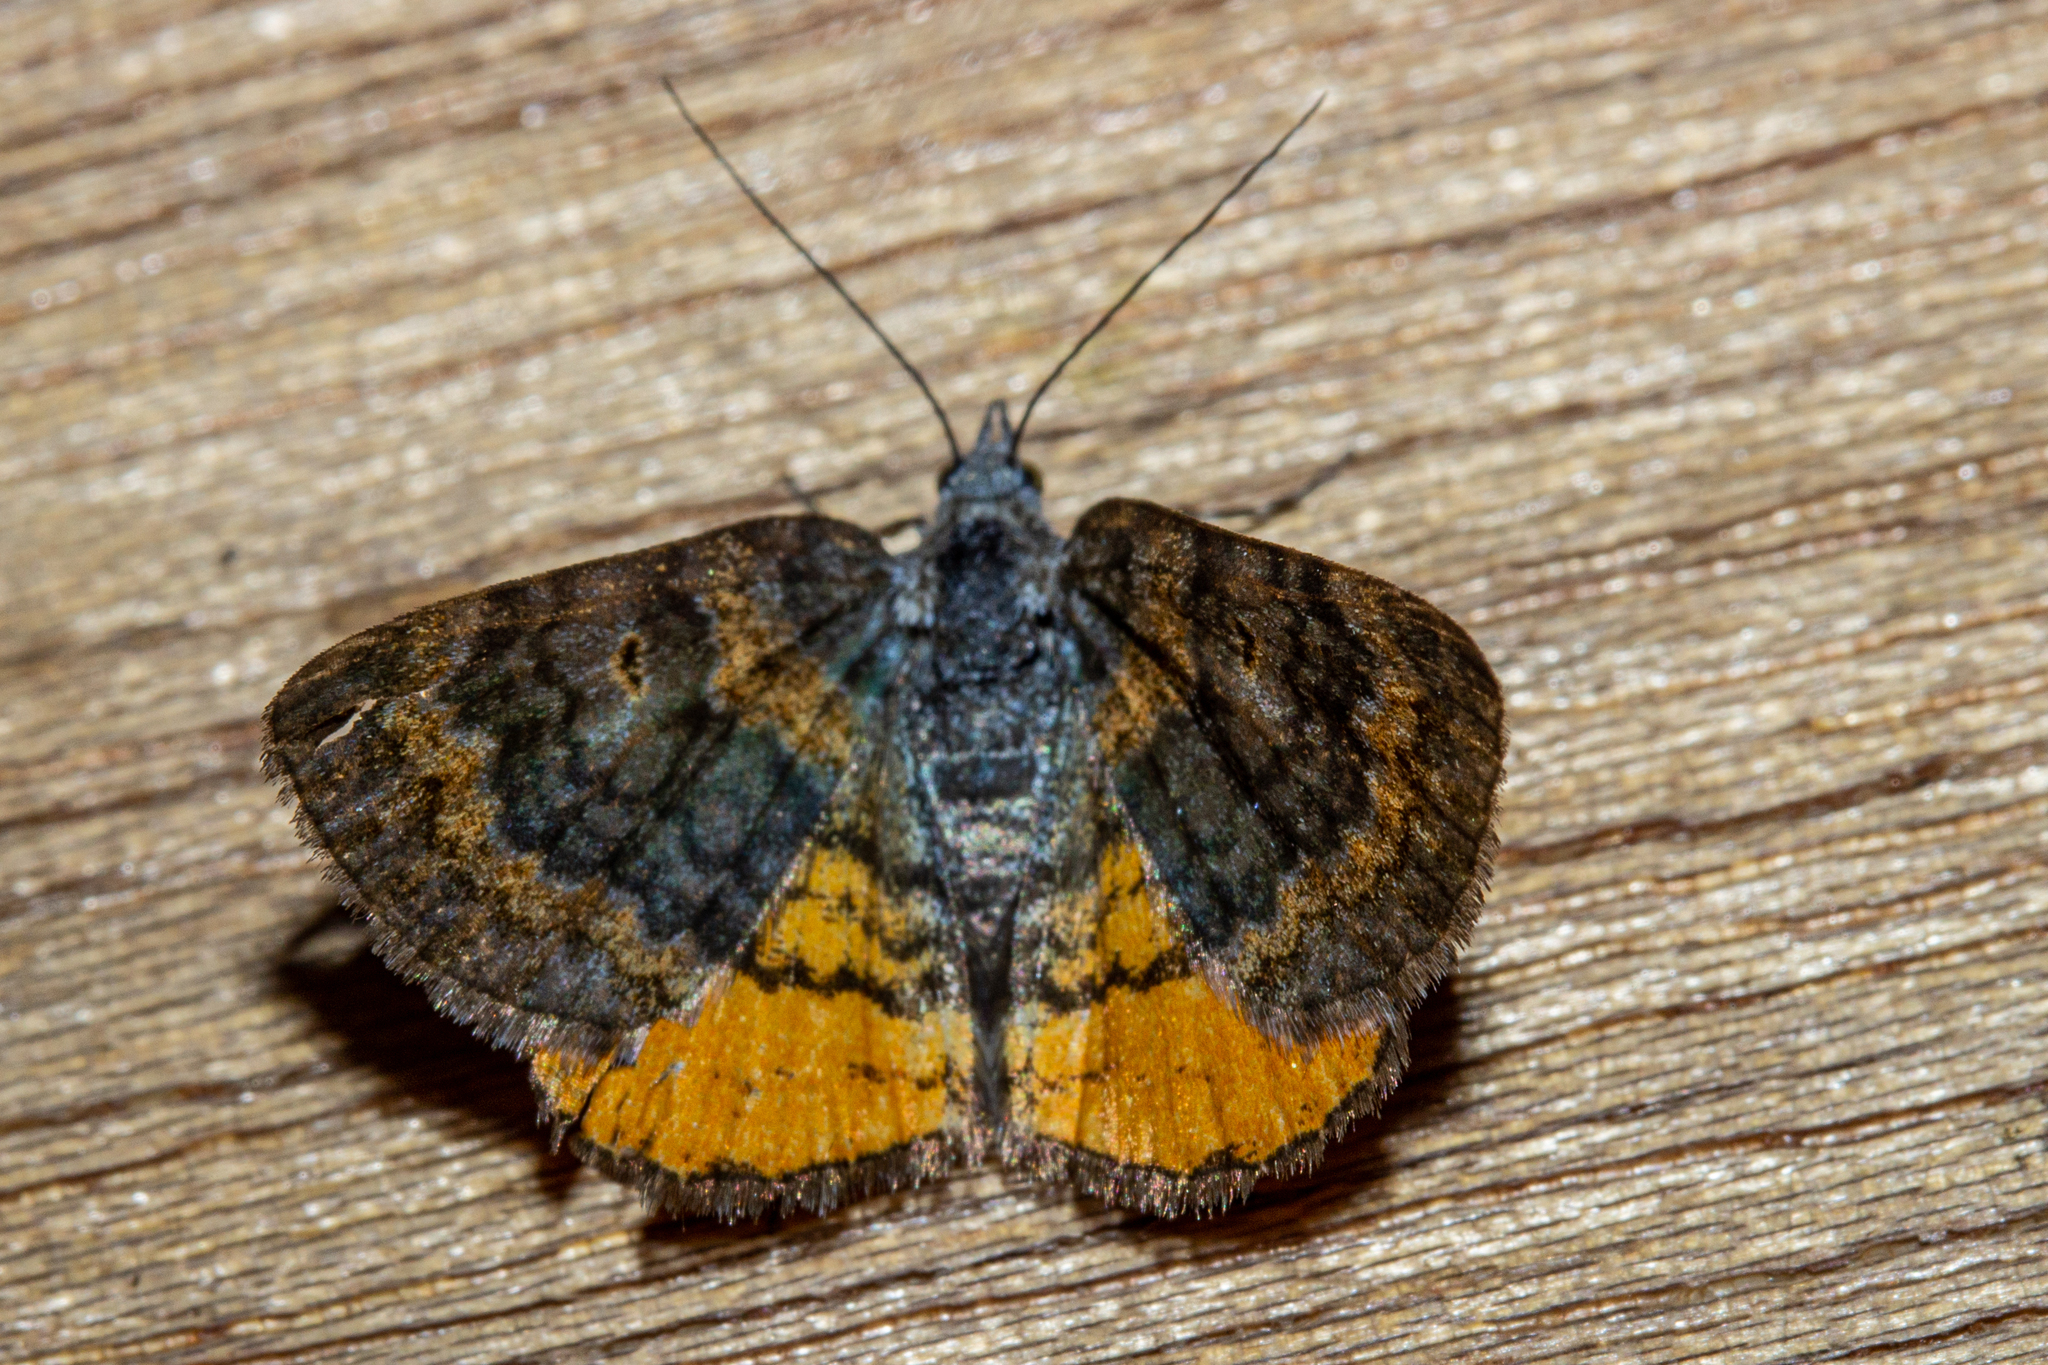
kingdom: Animalia
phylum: Arthropoda
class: Insecta
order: Lepidoptera
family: Geometridae
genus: Paranotoreas
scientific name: Paranotoreas zopyra
